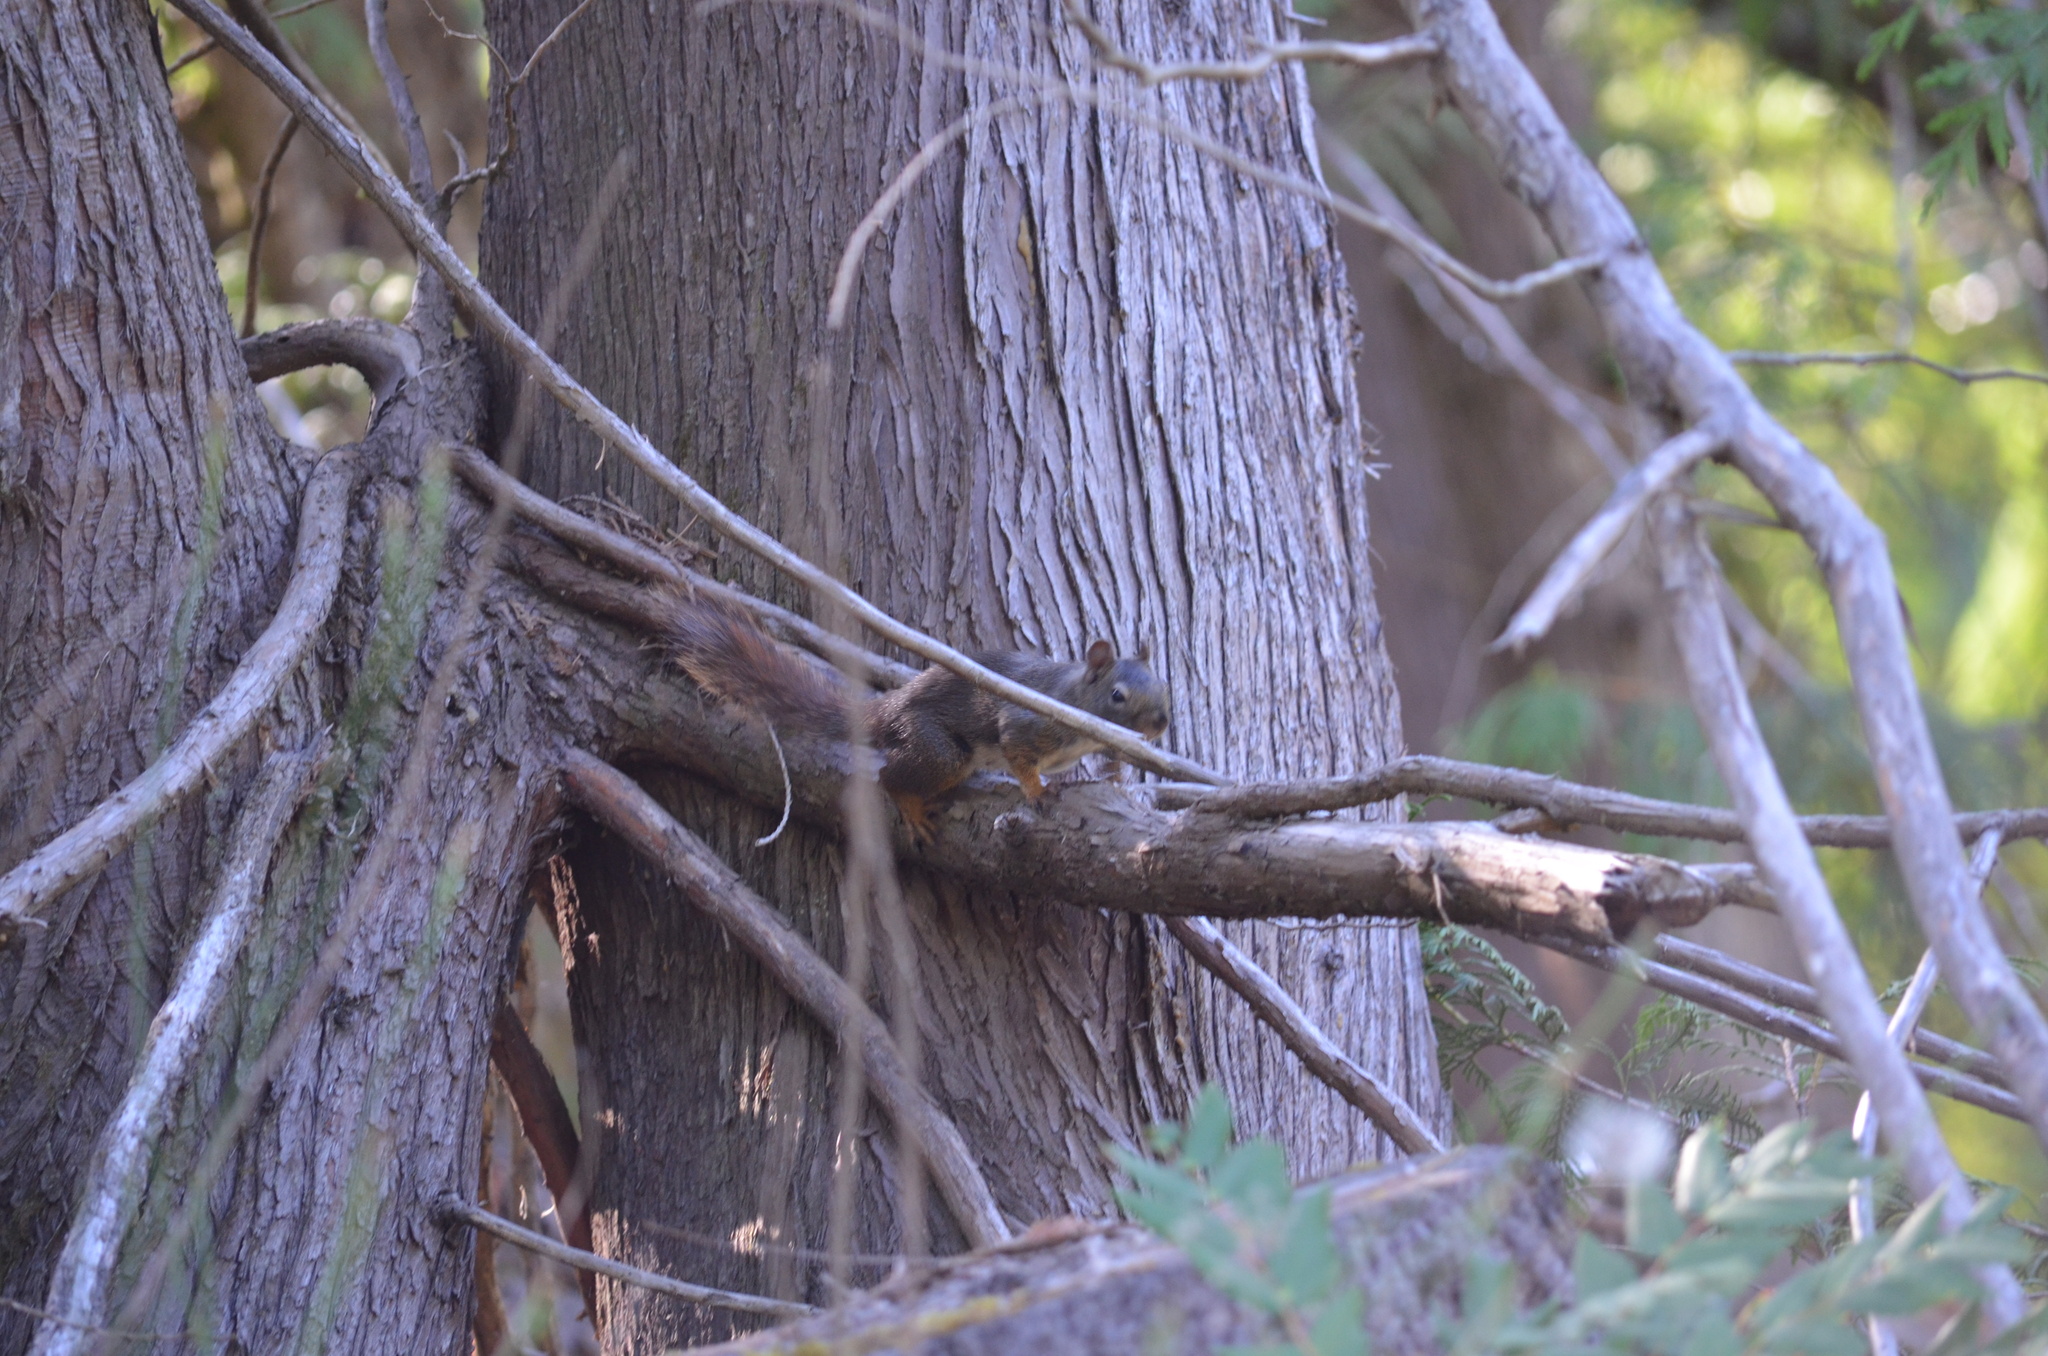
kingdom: Animalia
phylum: Chordata
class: Mammalia
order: Rodentia
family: Sciuridae
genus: Tamiasciurus
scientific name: Tamiasciurus hudsonicus
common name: Red squirrel
